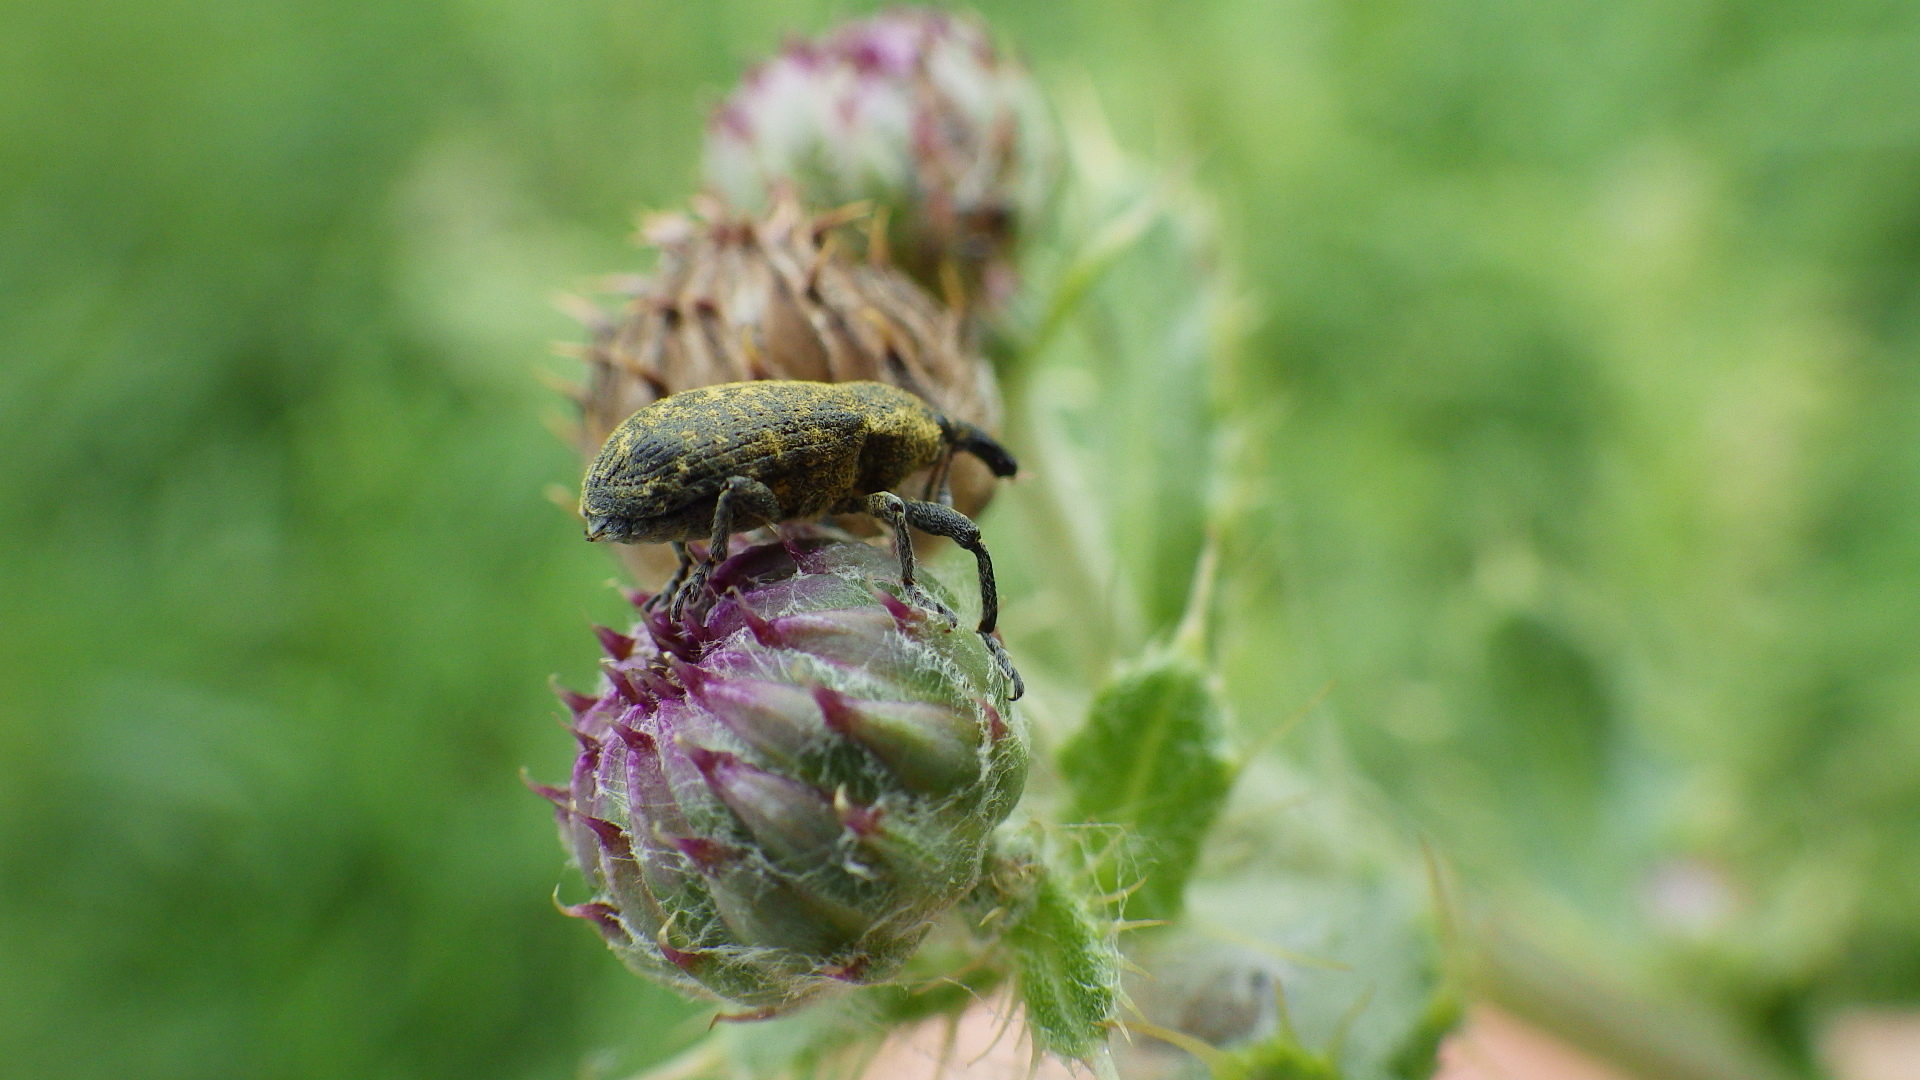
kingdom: Animalia
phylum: Arthropoda
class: Insecta
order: Coleoptera
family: Curculionidae
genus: Larinus
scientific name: Larinus carlinae
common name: Weevil
